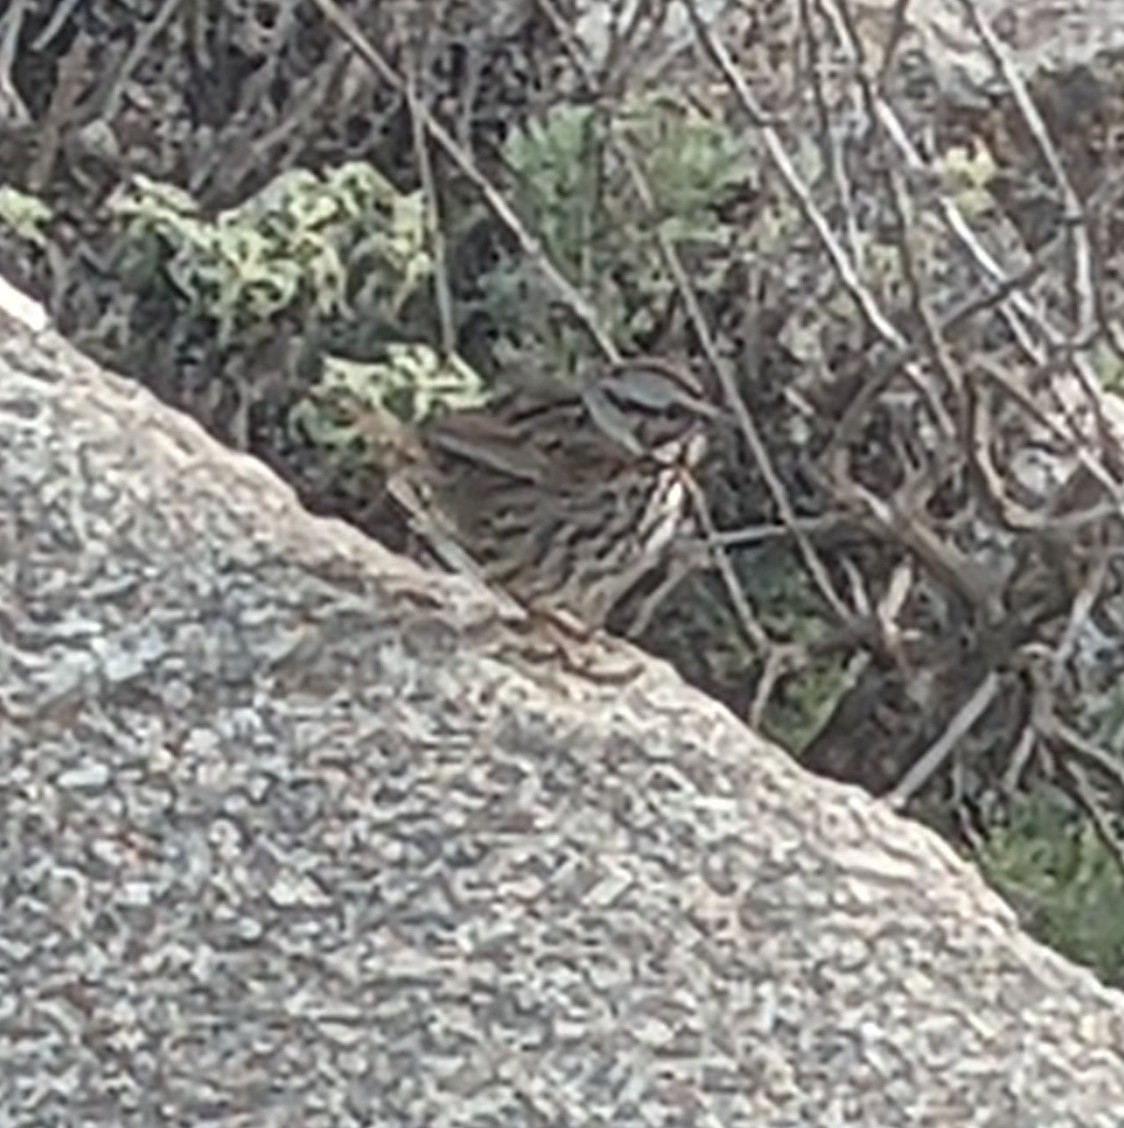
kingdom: Animalia
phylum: Chordata
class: Aves
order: Passeriformes
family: Passerellidae
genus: Melospiza
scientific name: Melospiza melodia
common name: Song sparrow
